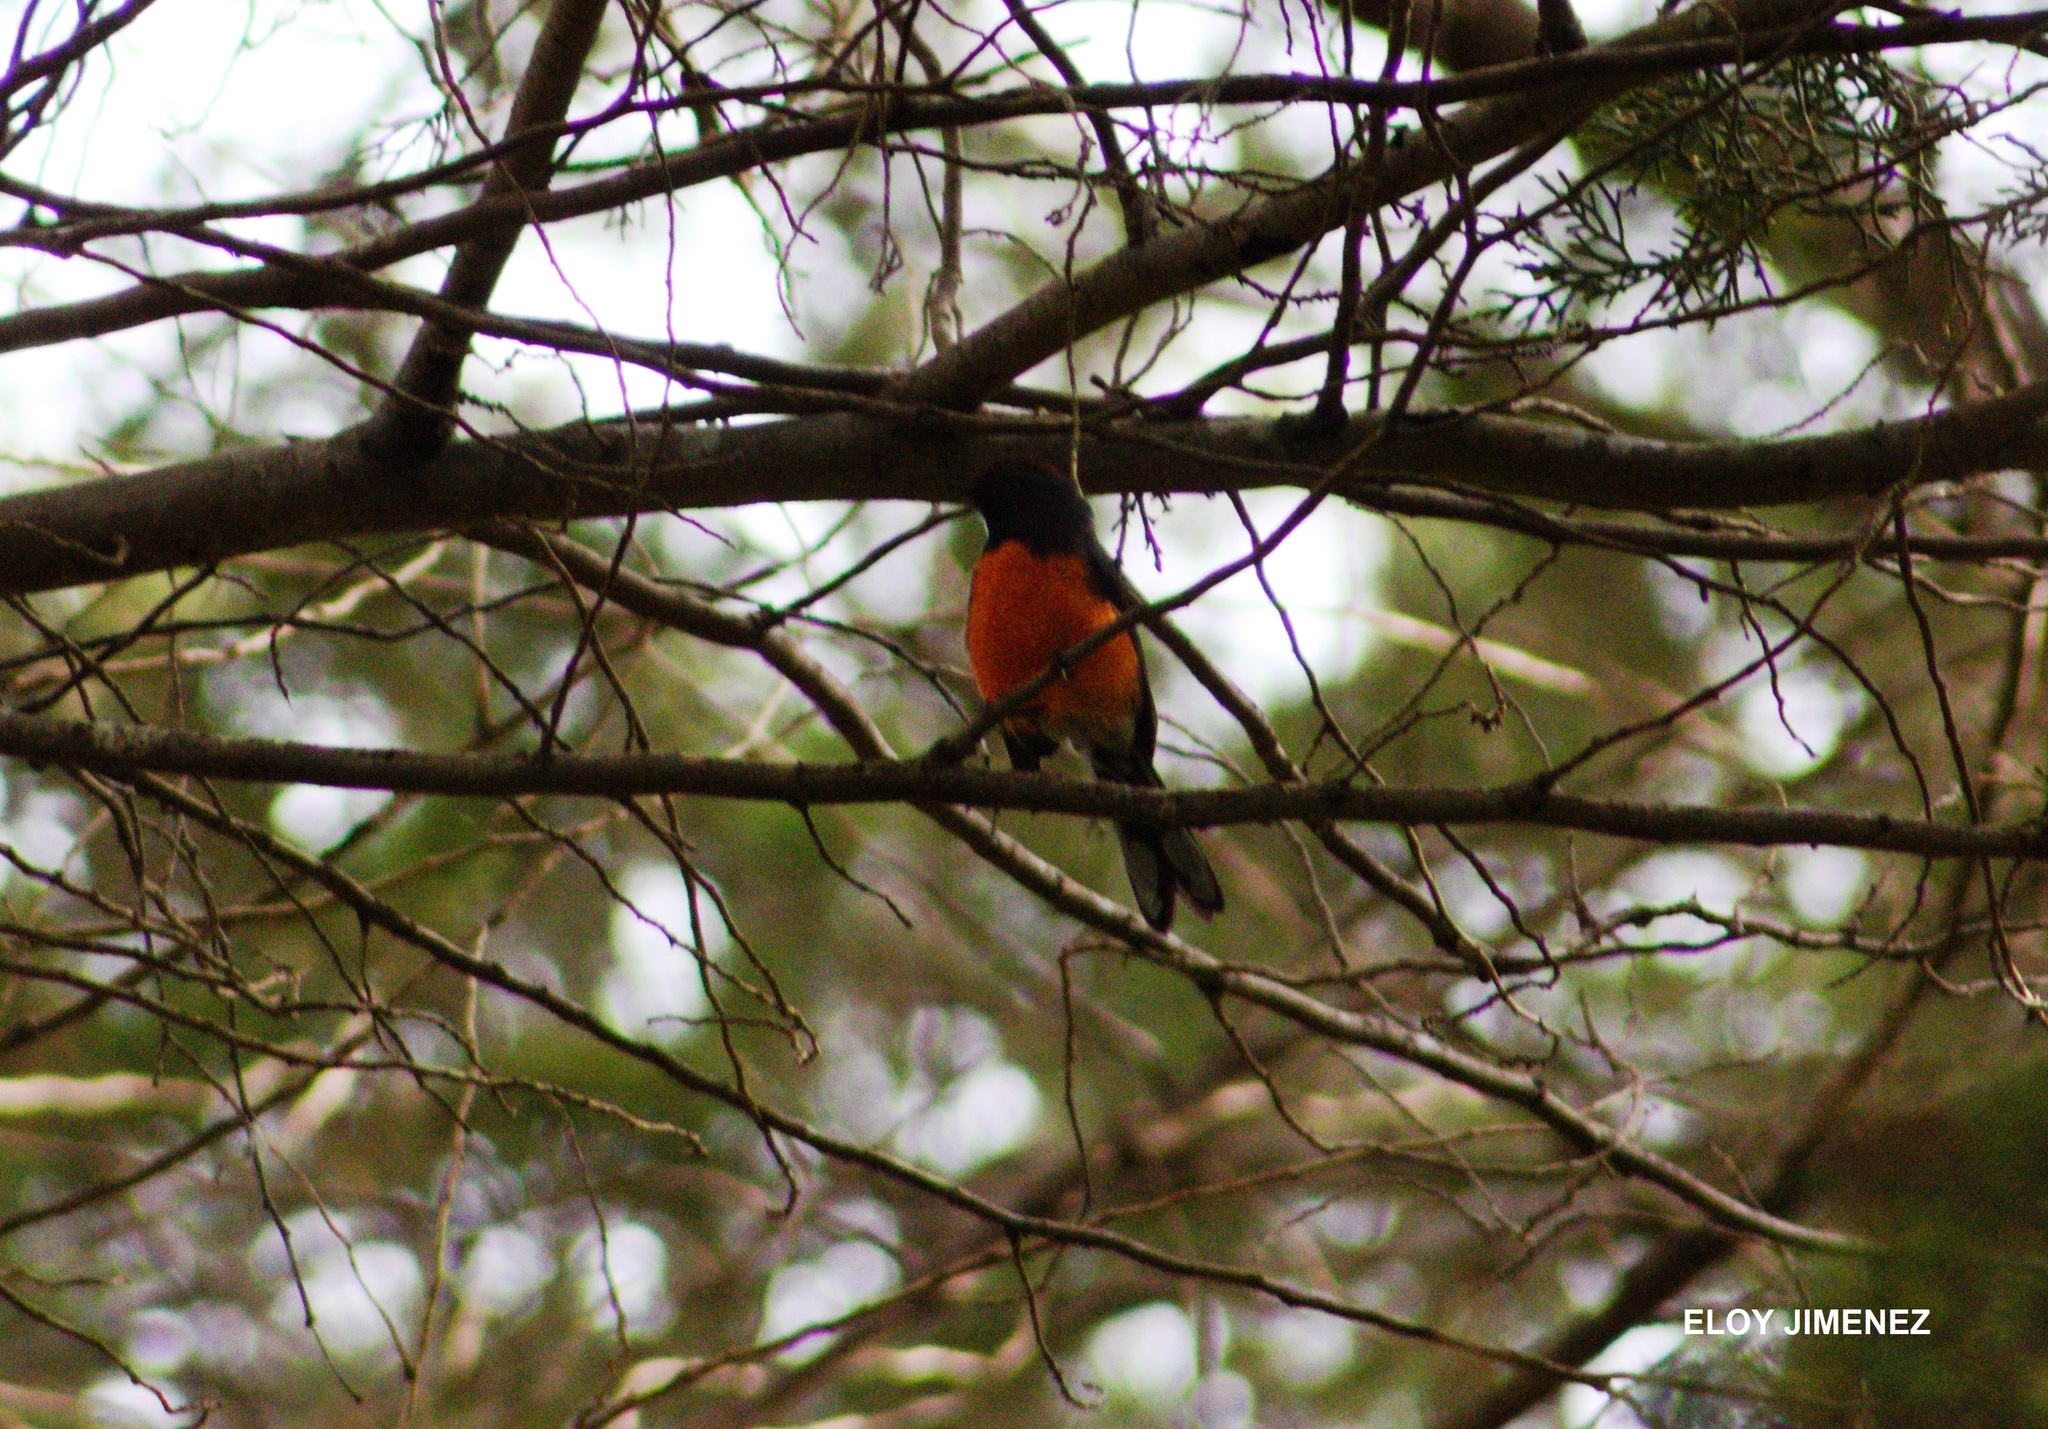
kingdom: Animalia
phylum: Chordata
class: Aves
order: Passeriformes
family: Parulidae
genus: Myioborus
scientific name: Myioborus miniatus
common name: Slate-throated redstart
